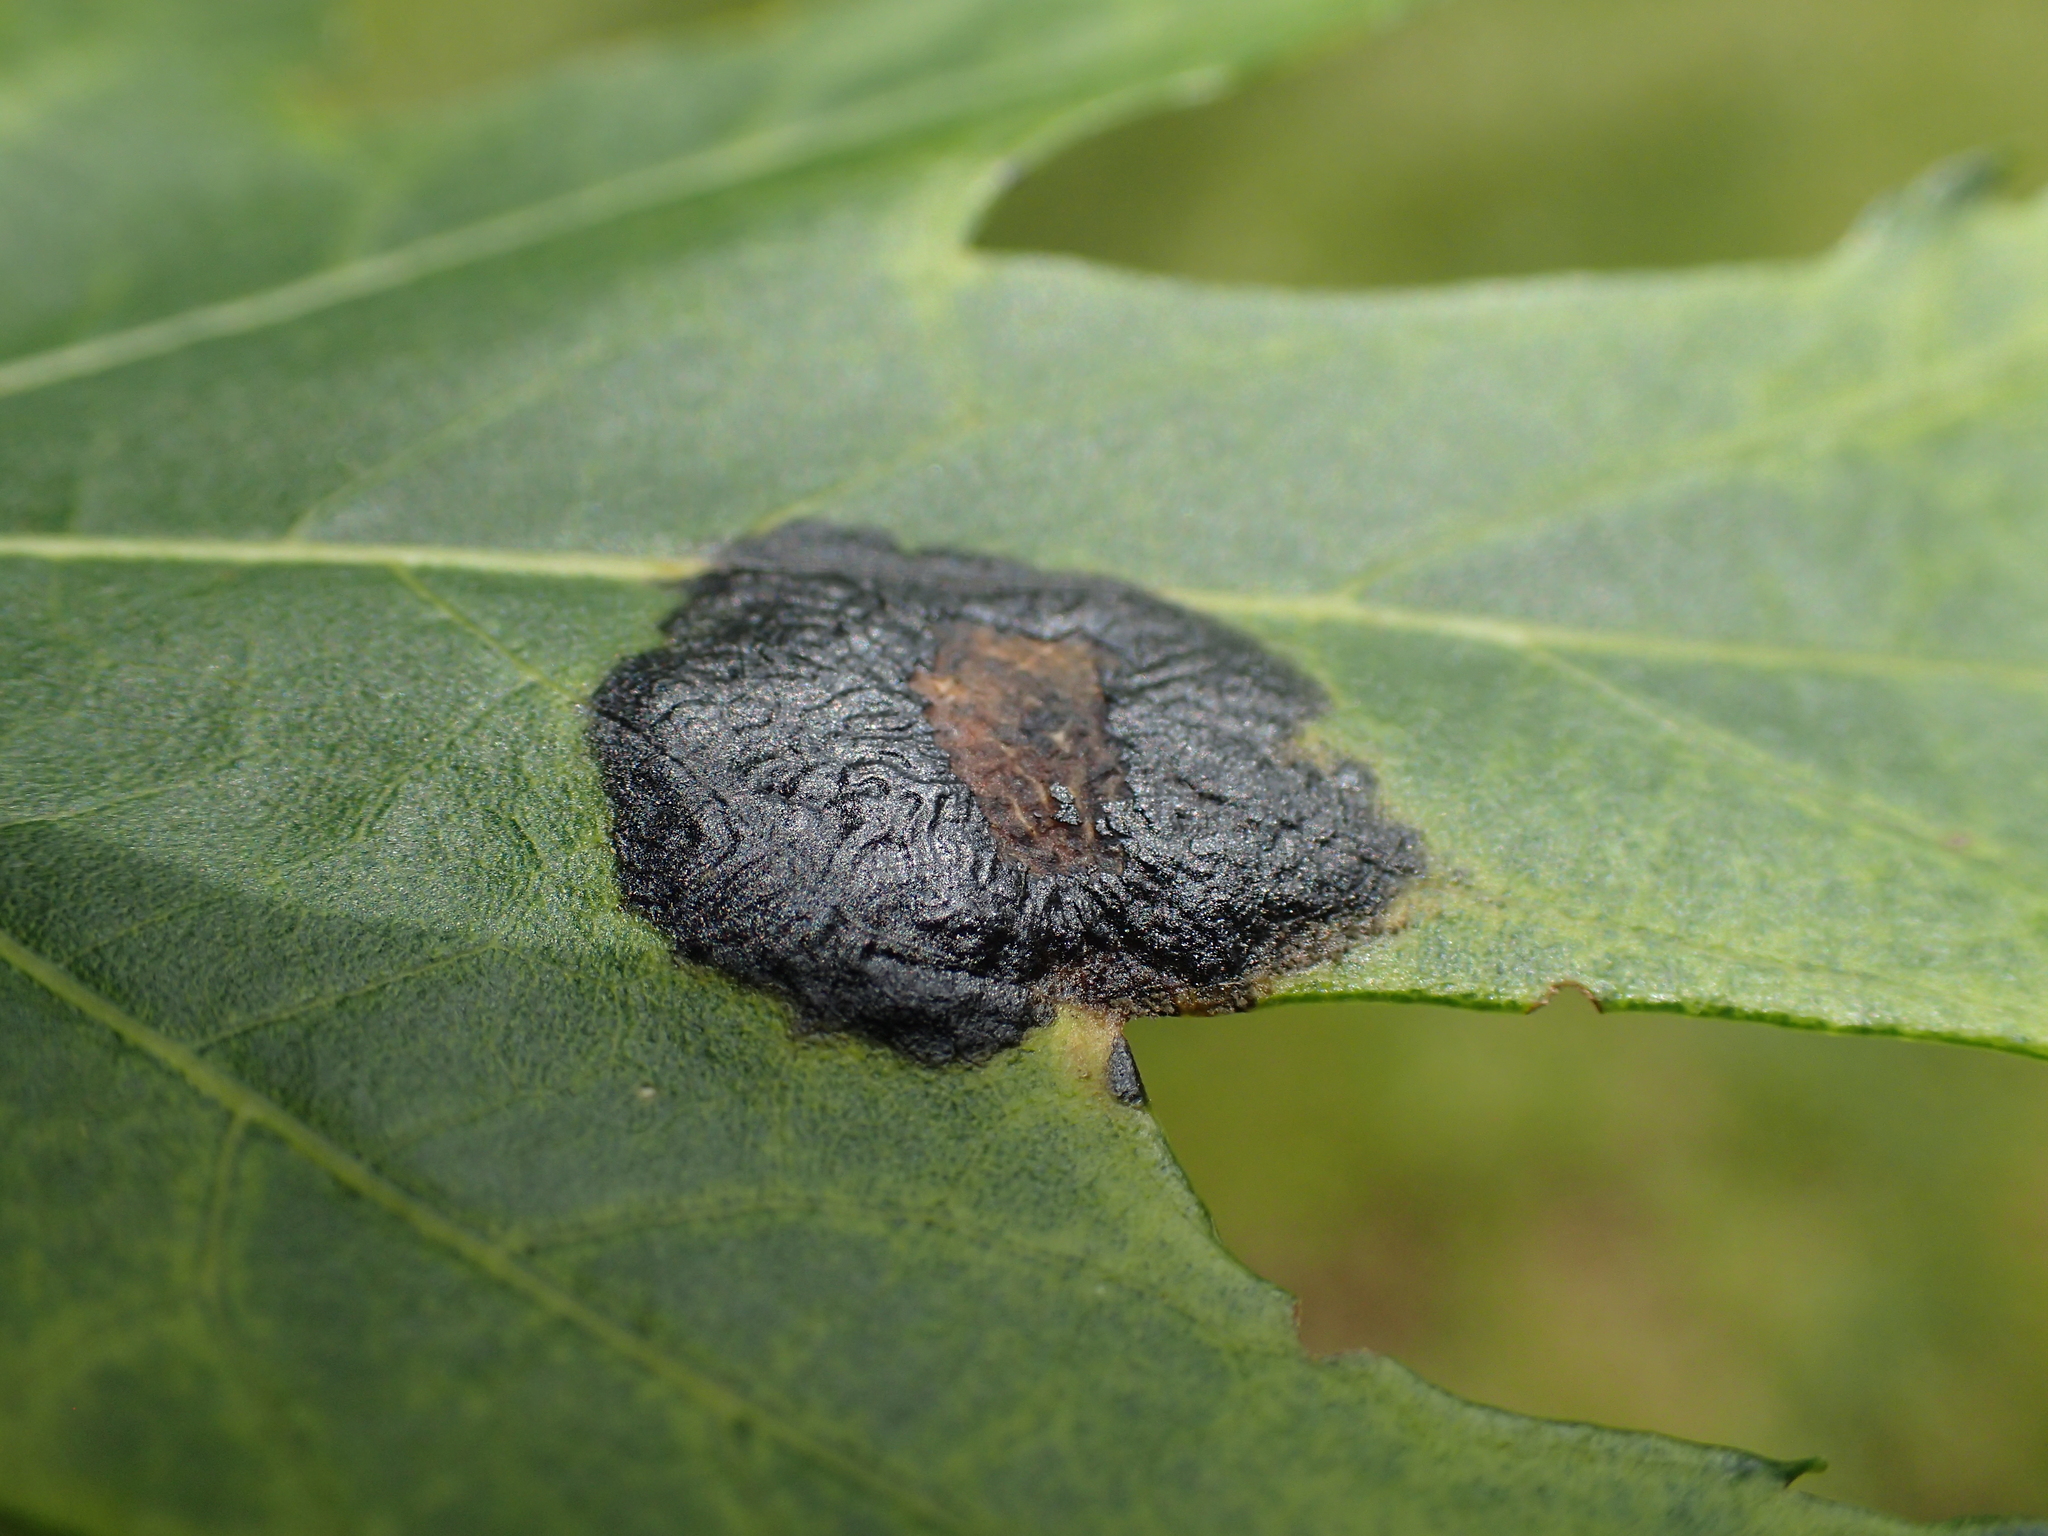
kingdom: Fungi
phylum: Ascomycota
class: Leotiomycetes
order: Rhytismatales
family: Rhytismataceae
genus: Rhytisma
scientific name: Rhytisma americanum
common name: American tar spot
